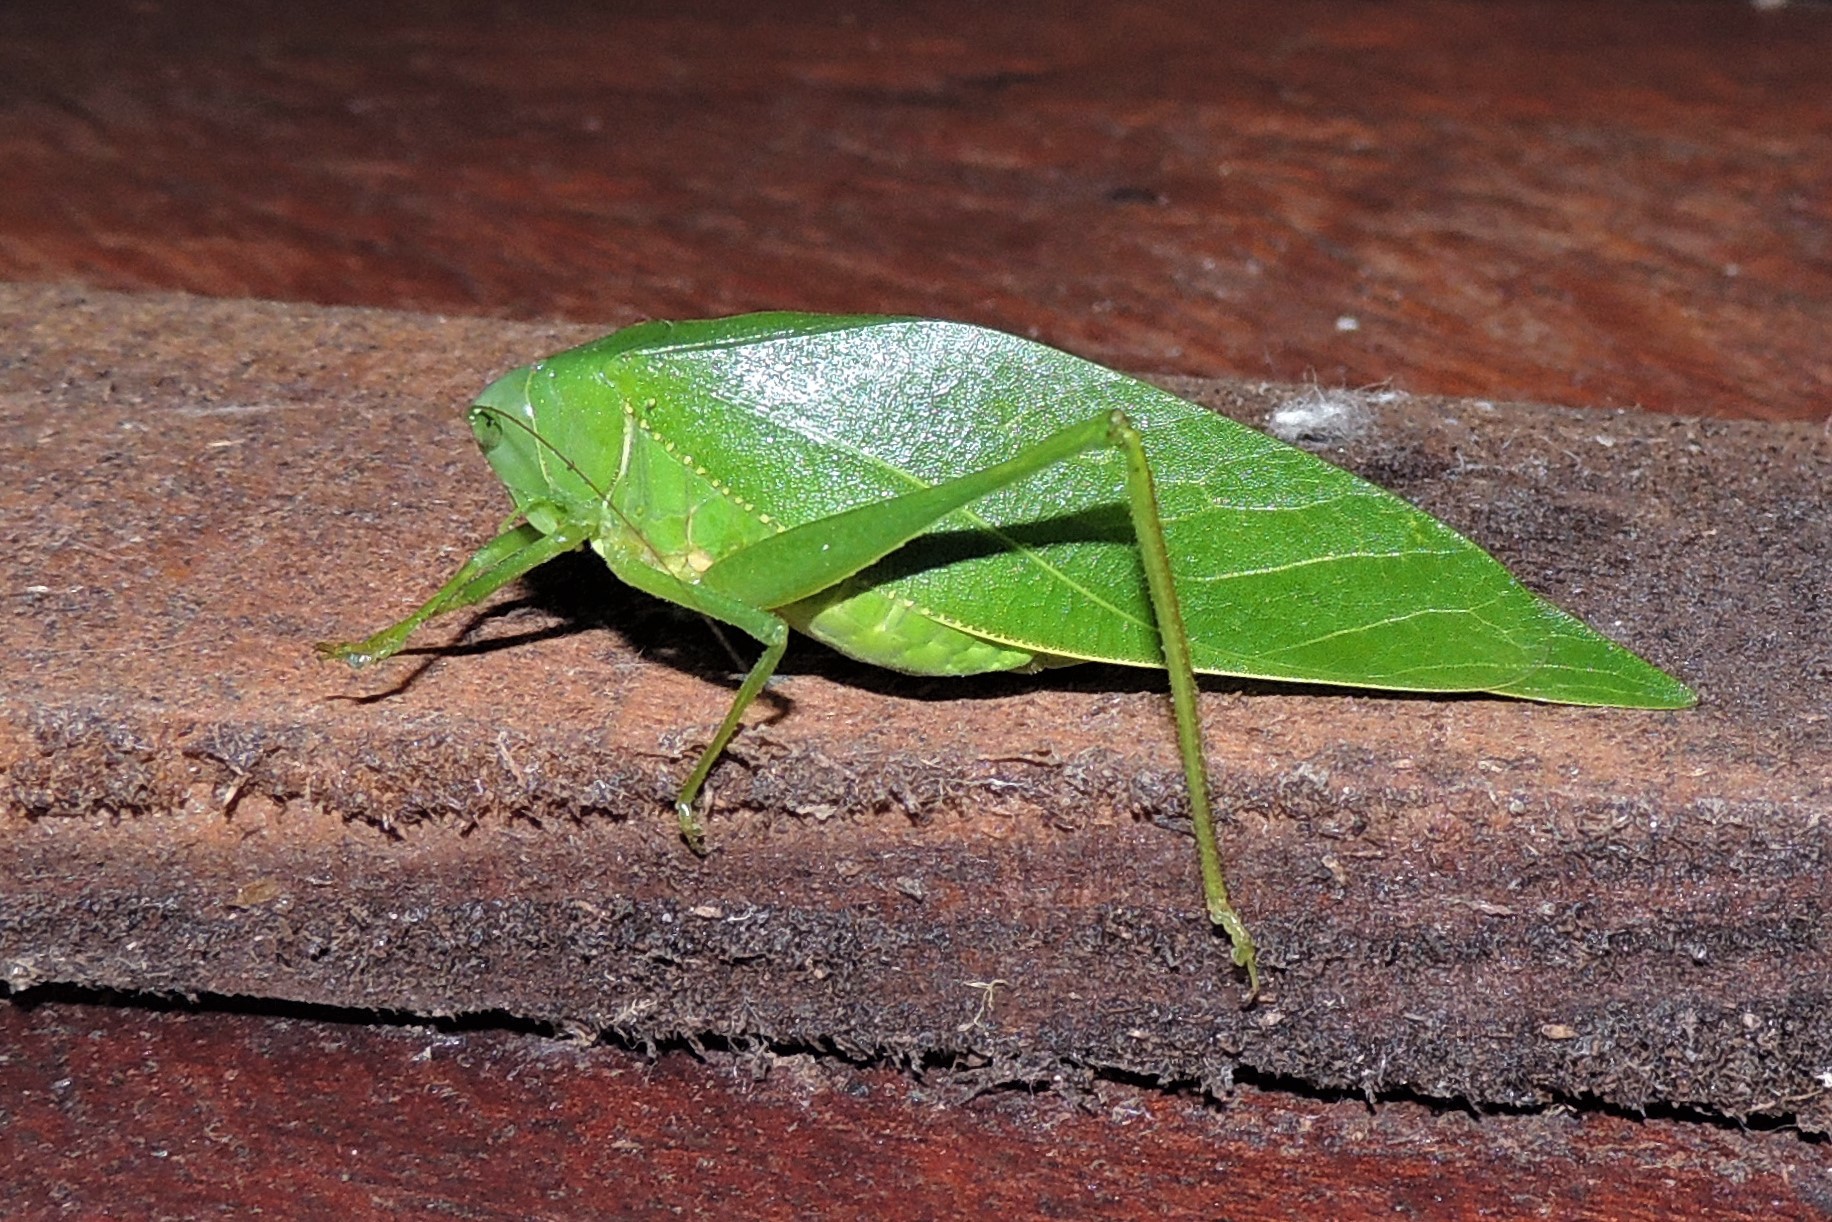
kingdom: Animalia
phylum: Arthropoda
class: Insecta
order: Orthoptera
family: Tettigoniidae
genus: Microcentrum
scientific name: Microcentrum marginatum
